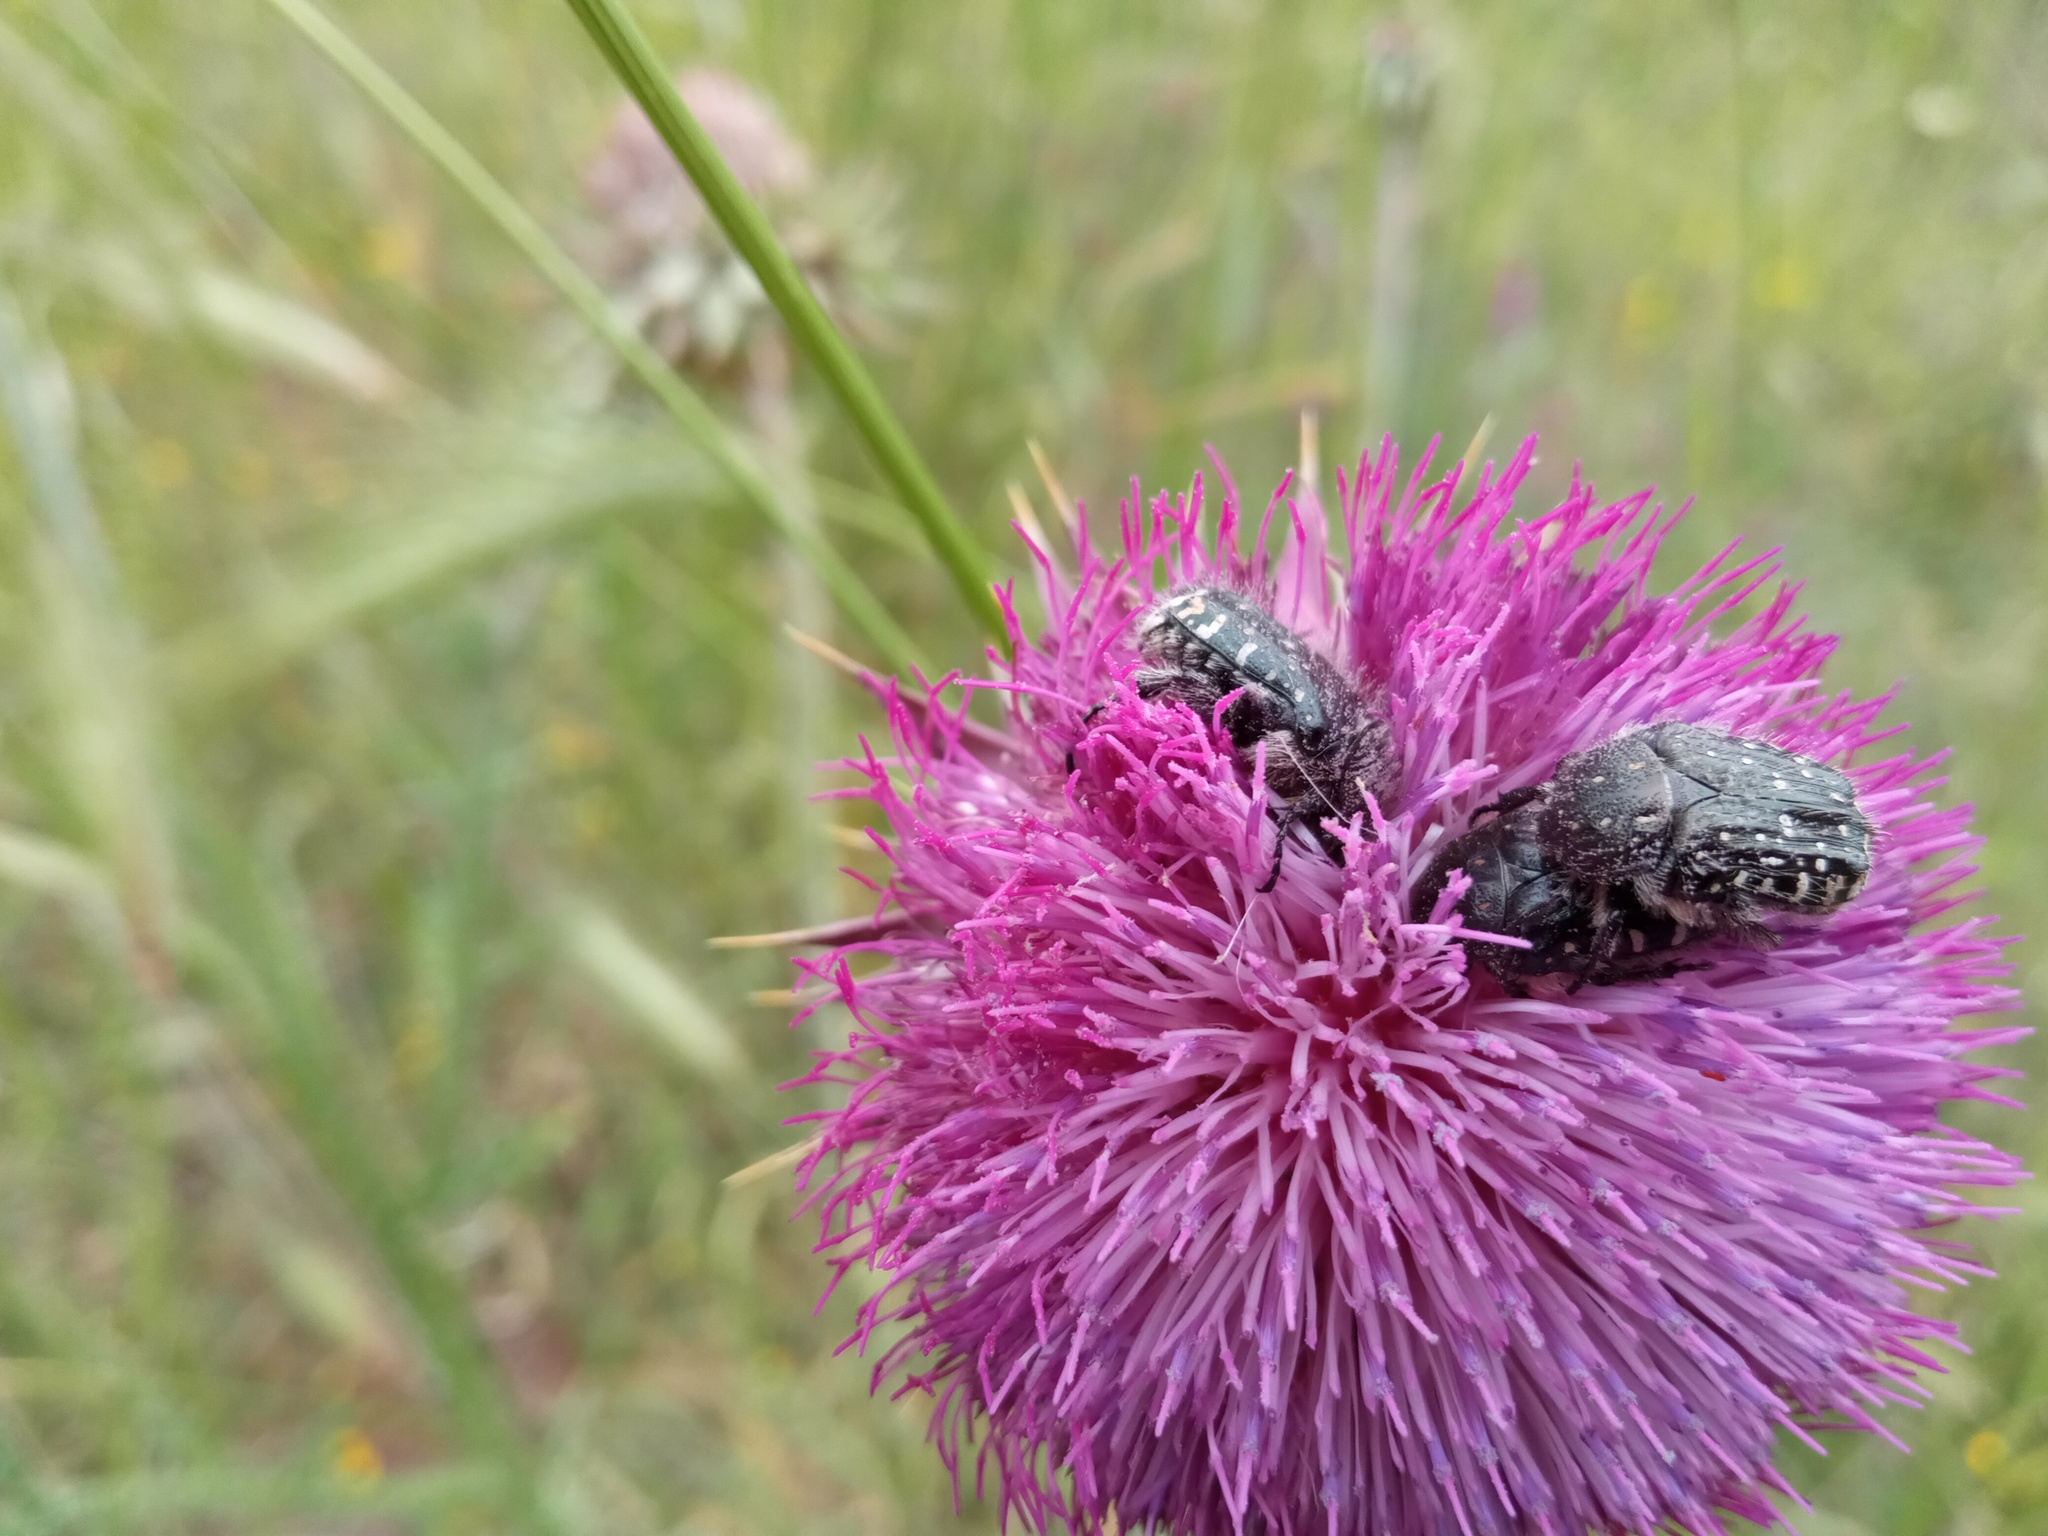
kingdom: Animalia
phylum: Arthropoda
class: Insecta
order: Coleoptera
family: Scarabaeidae
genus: Oxythyrea
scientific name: Oxythyrea funesta
